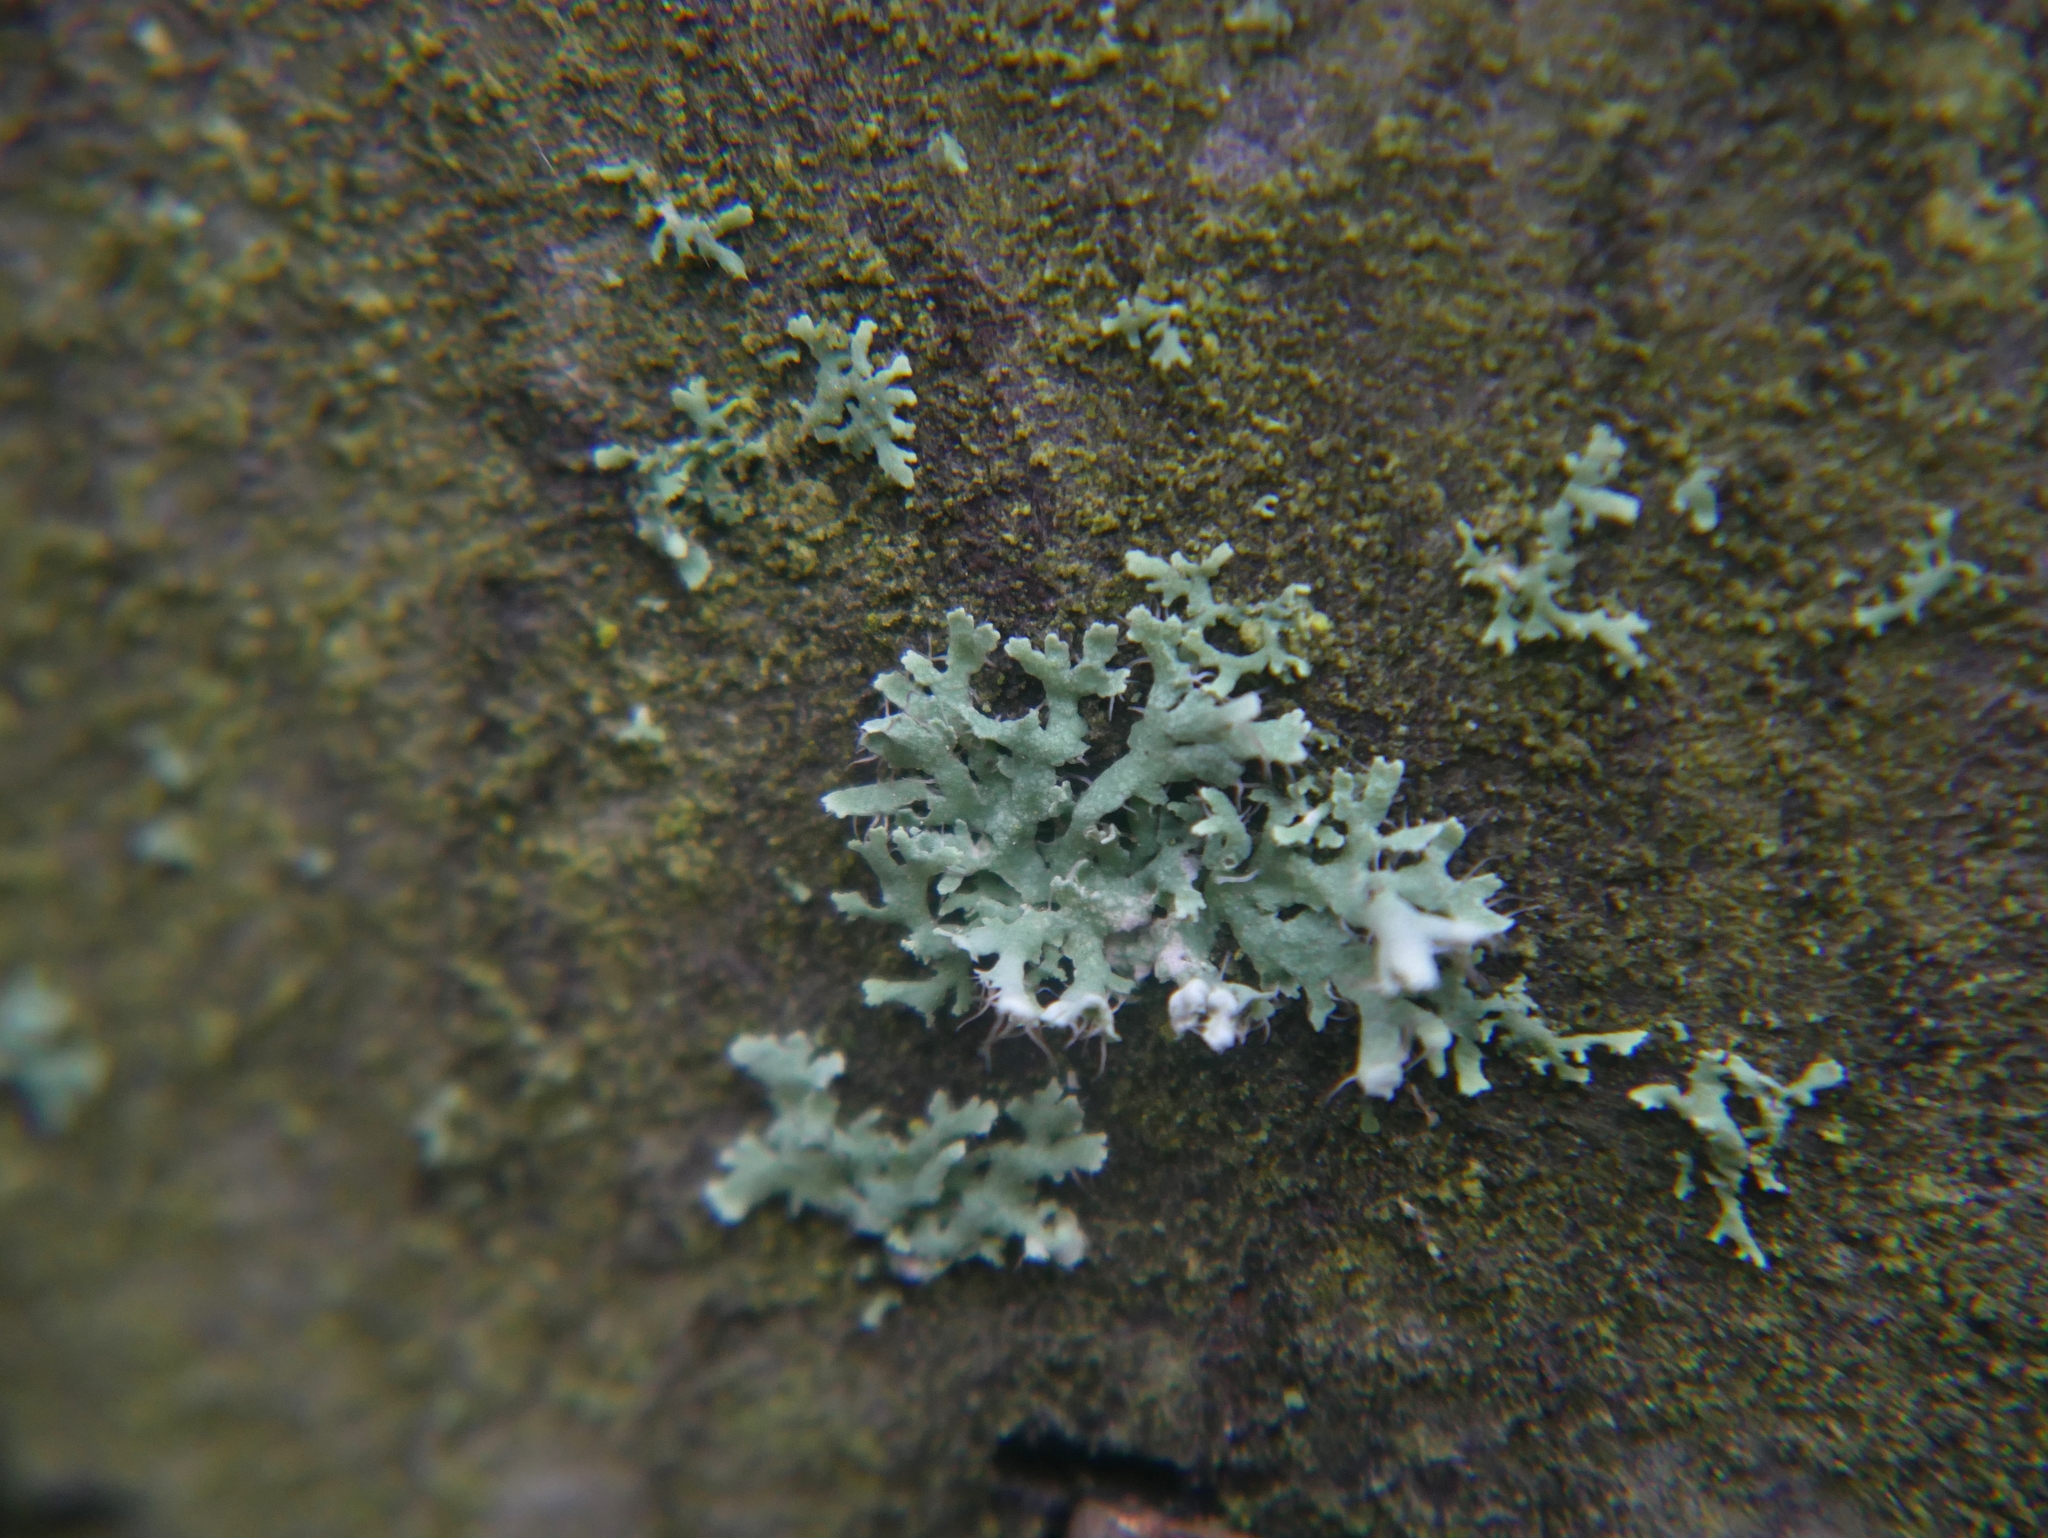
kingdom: Fungi
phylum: Ascomycota
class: Lecanoromycetes
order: Caliciales
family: Physciaceae
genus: Physcia
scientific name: Physcia adscendens
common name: Hooded rosette lichen
